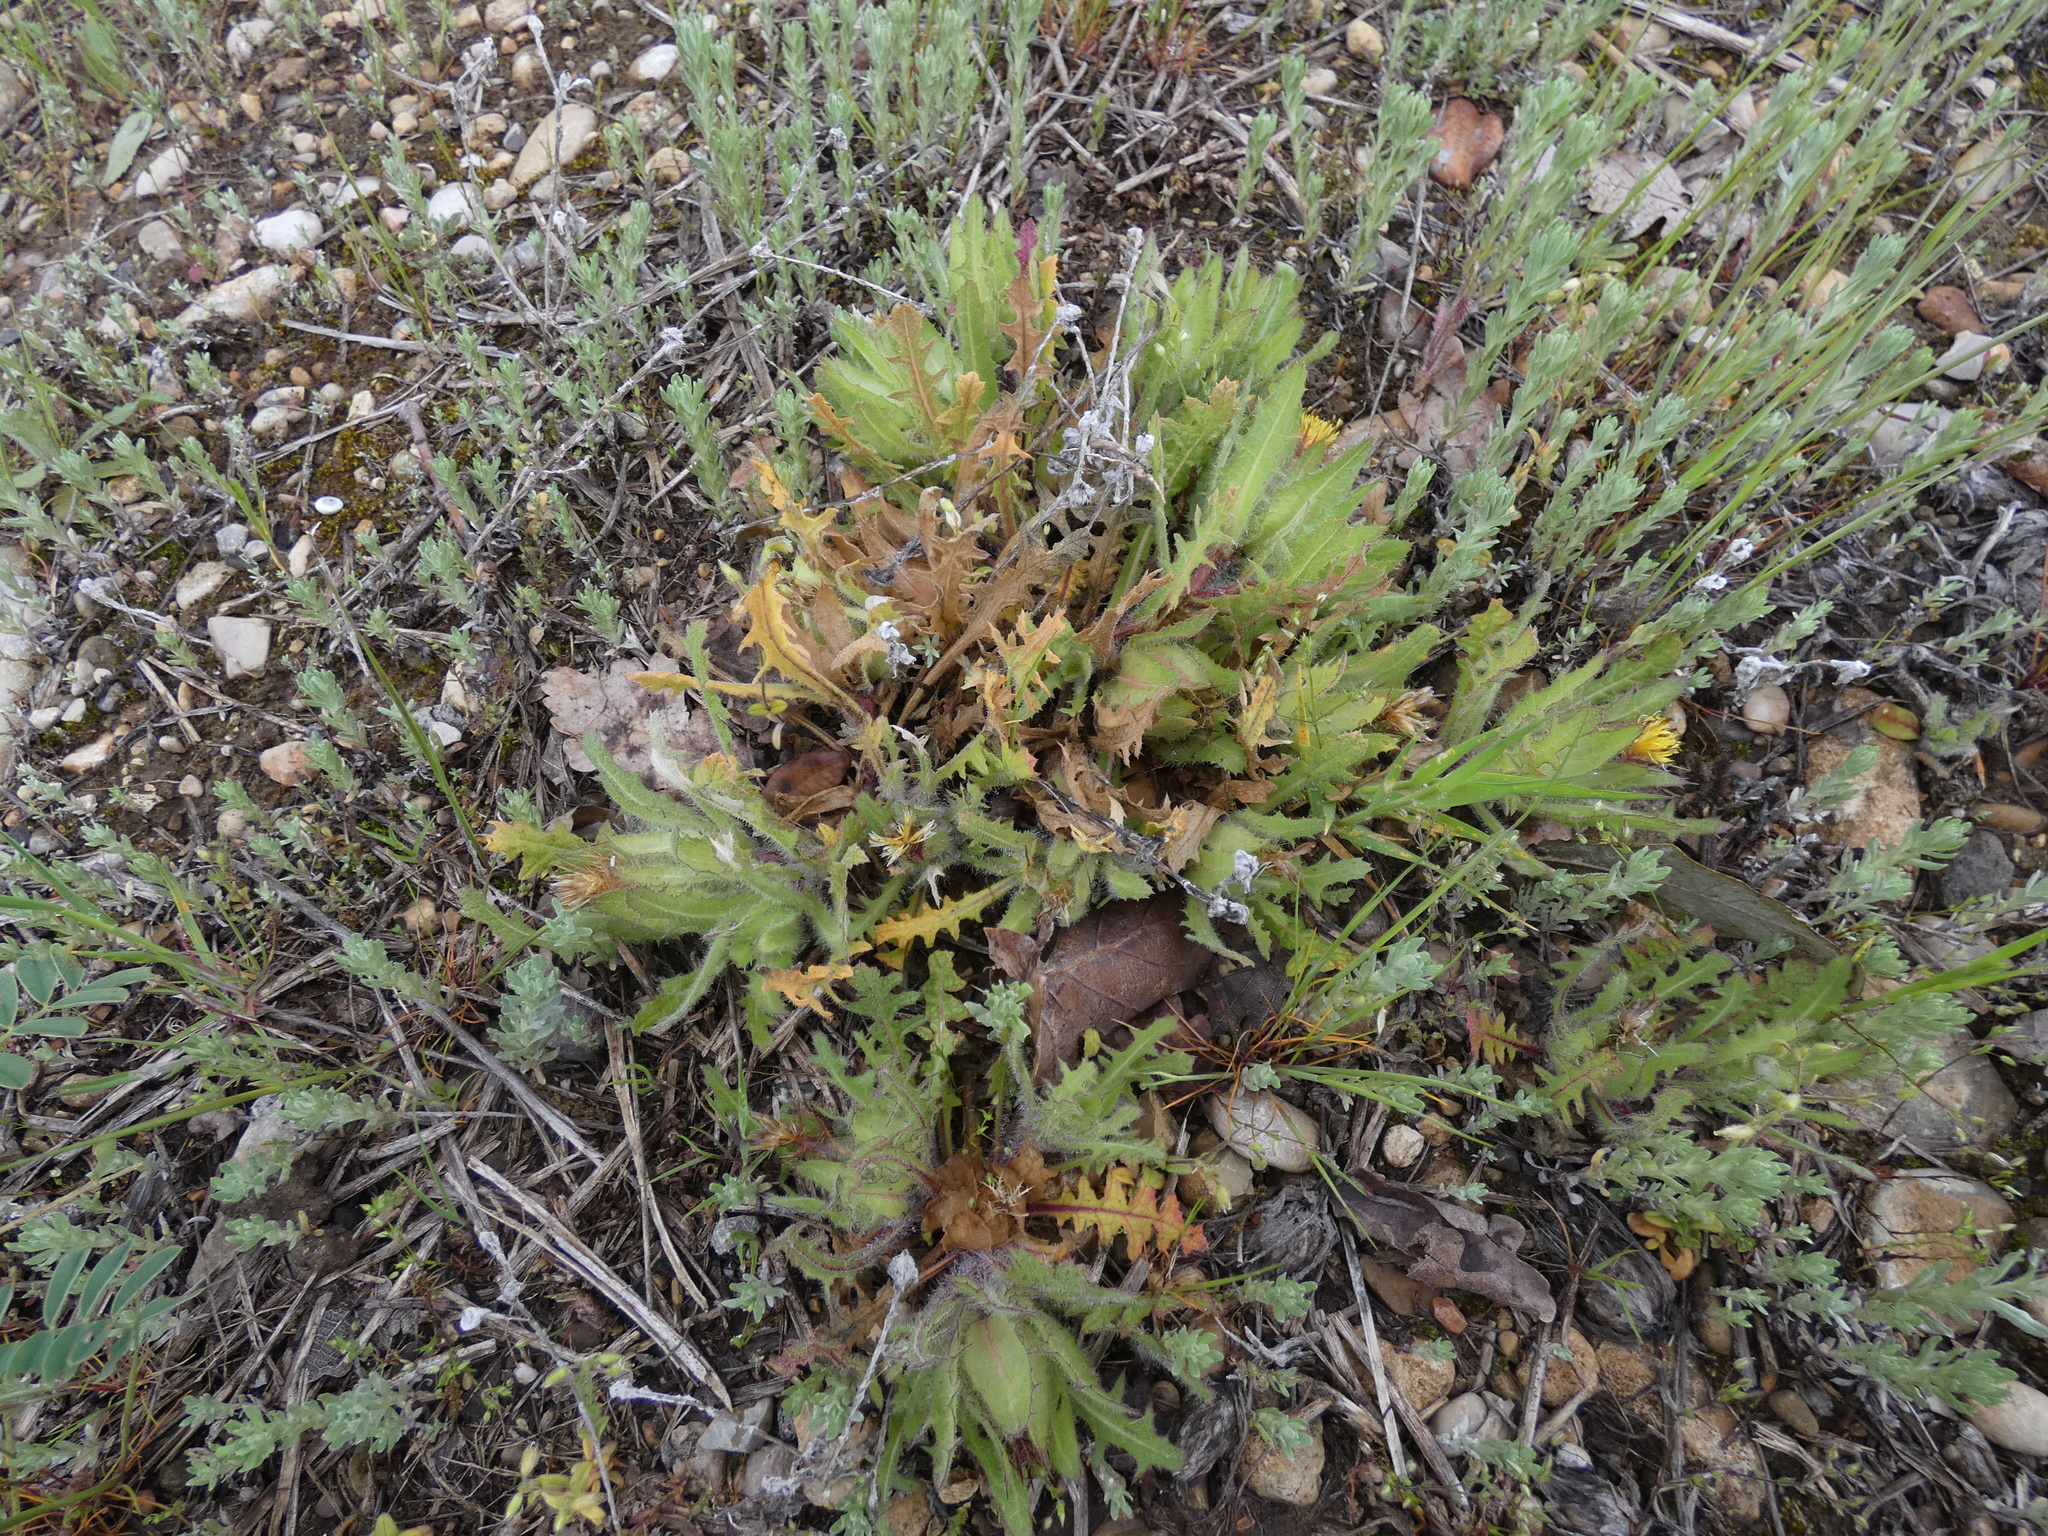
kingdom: Plantae
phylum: Tracheophyta
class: Magnoliopsida
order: Asterales
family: Asteraceae
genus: Centaurea
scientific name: Centaurea benedicta
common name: Blessed thistle
